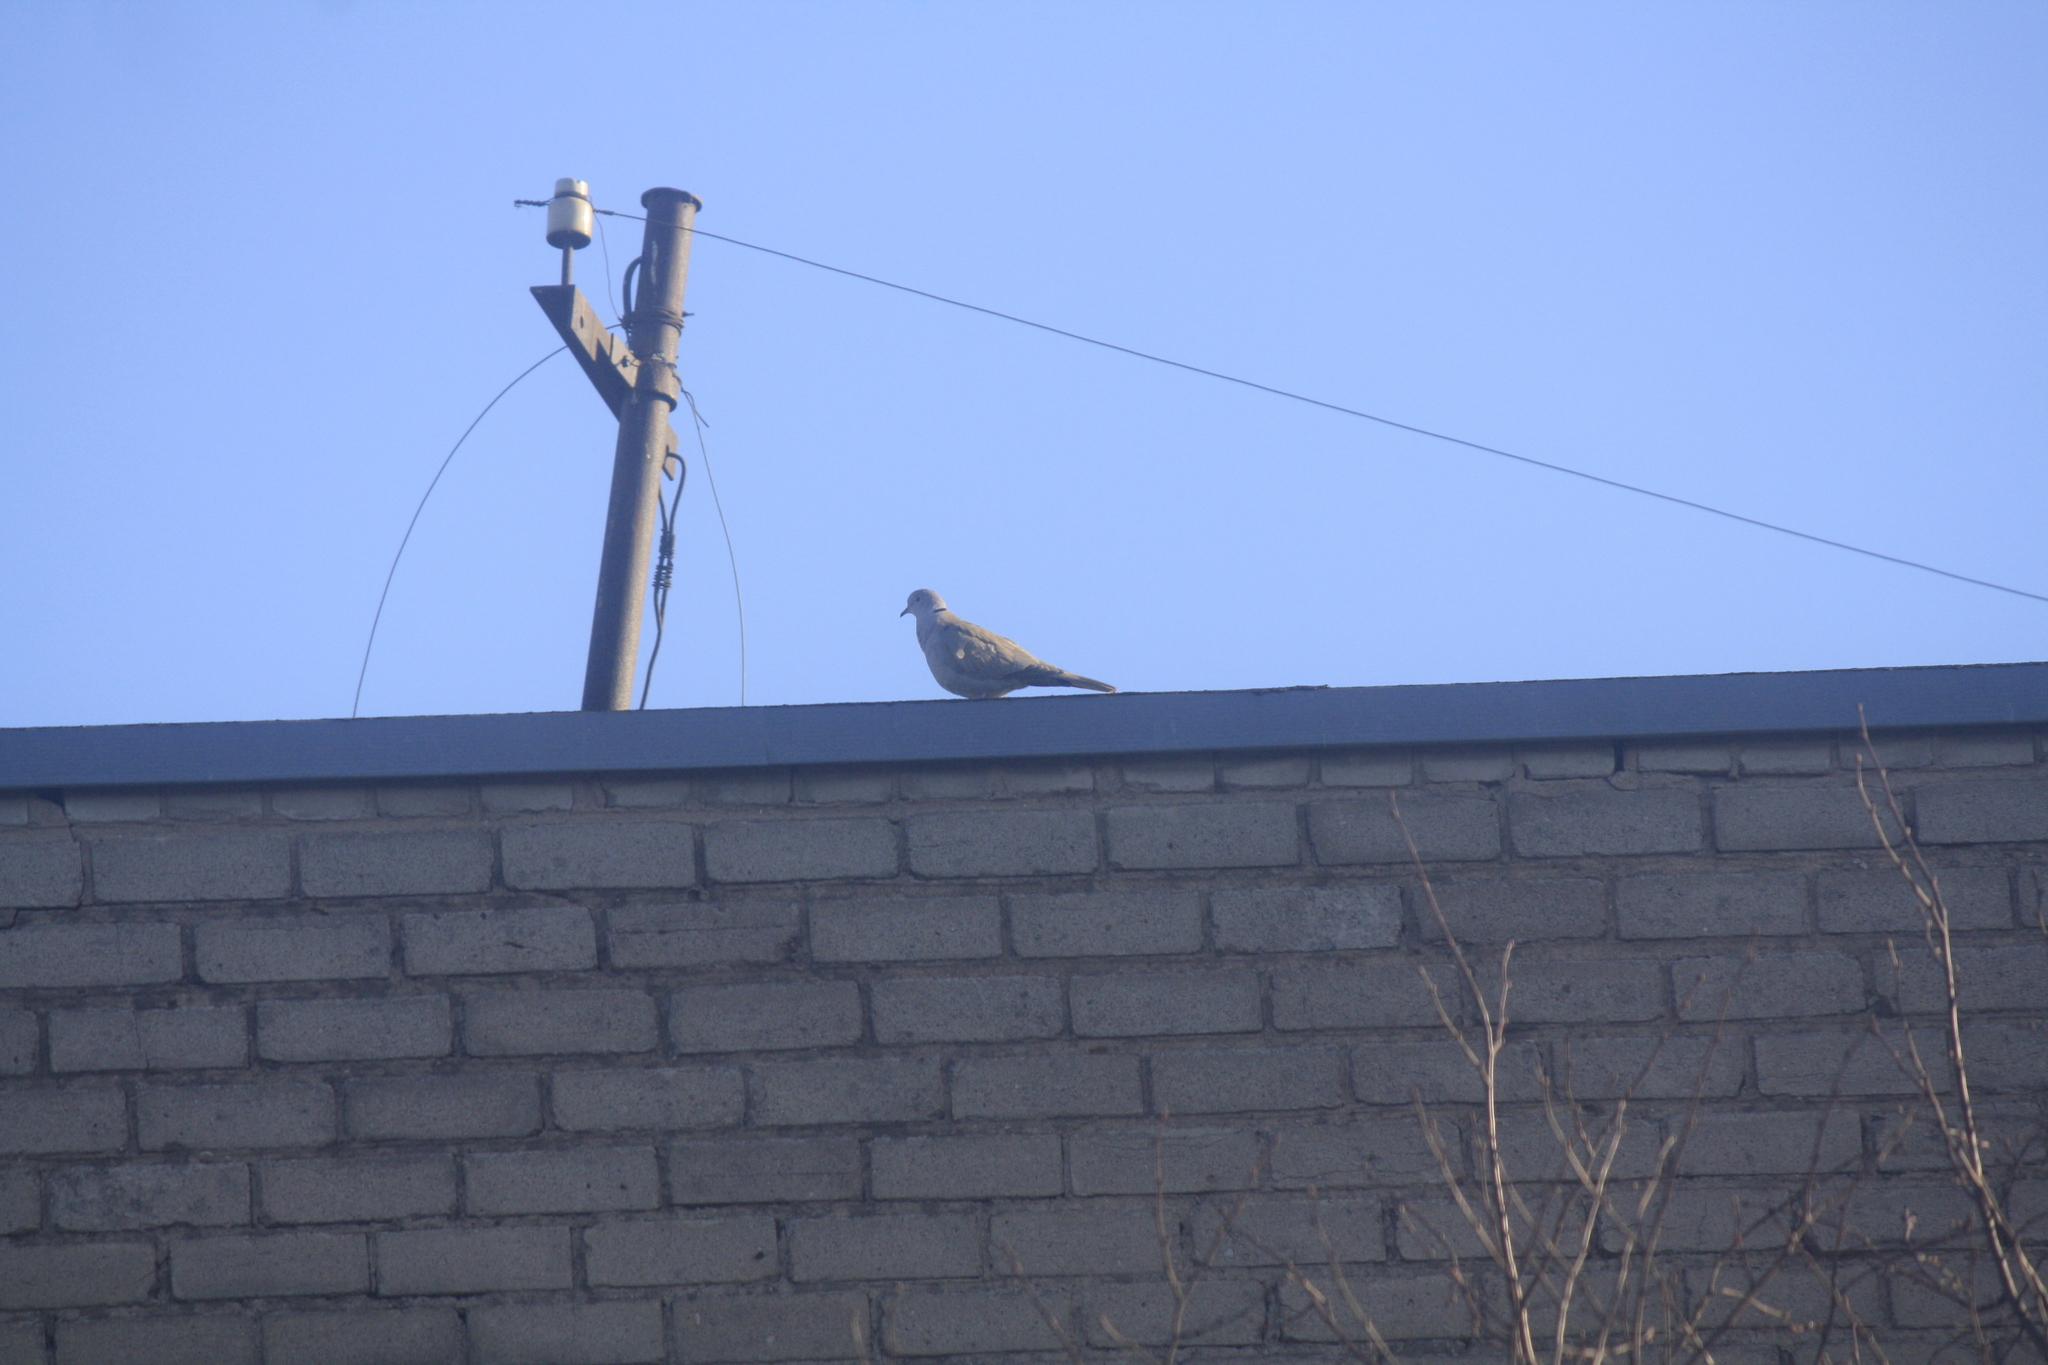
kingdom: Animalia
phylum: Chordata
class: Aves
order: Columbiformes
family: Columbidae
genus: Streptopelia
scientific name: Streptopelia decaocto
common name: Eurasian collared dove
